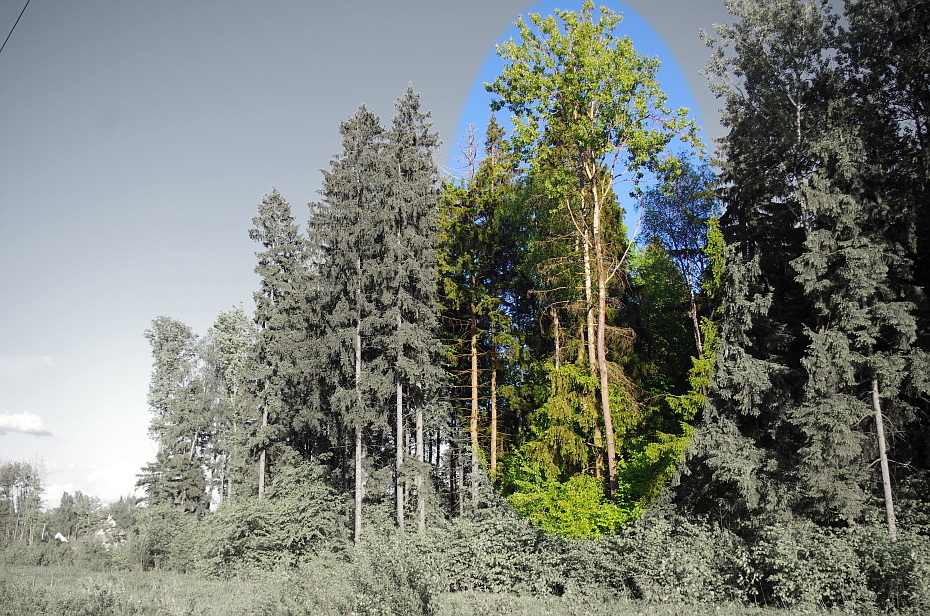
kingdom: Plantae
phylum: Tracheophyta
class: Magnoliopsida
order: Malpighiales
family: Salicaceae
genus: Populus
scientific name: Populus tremula
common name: European aspen
